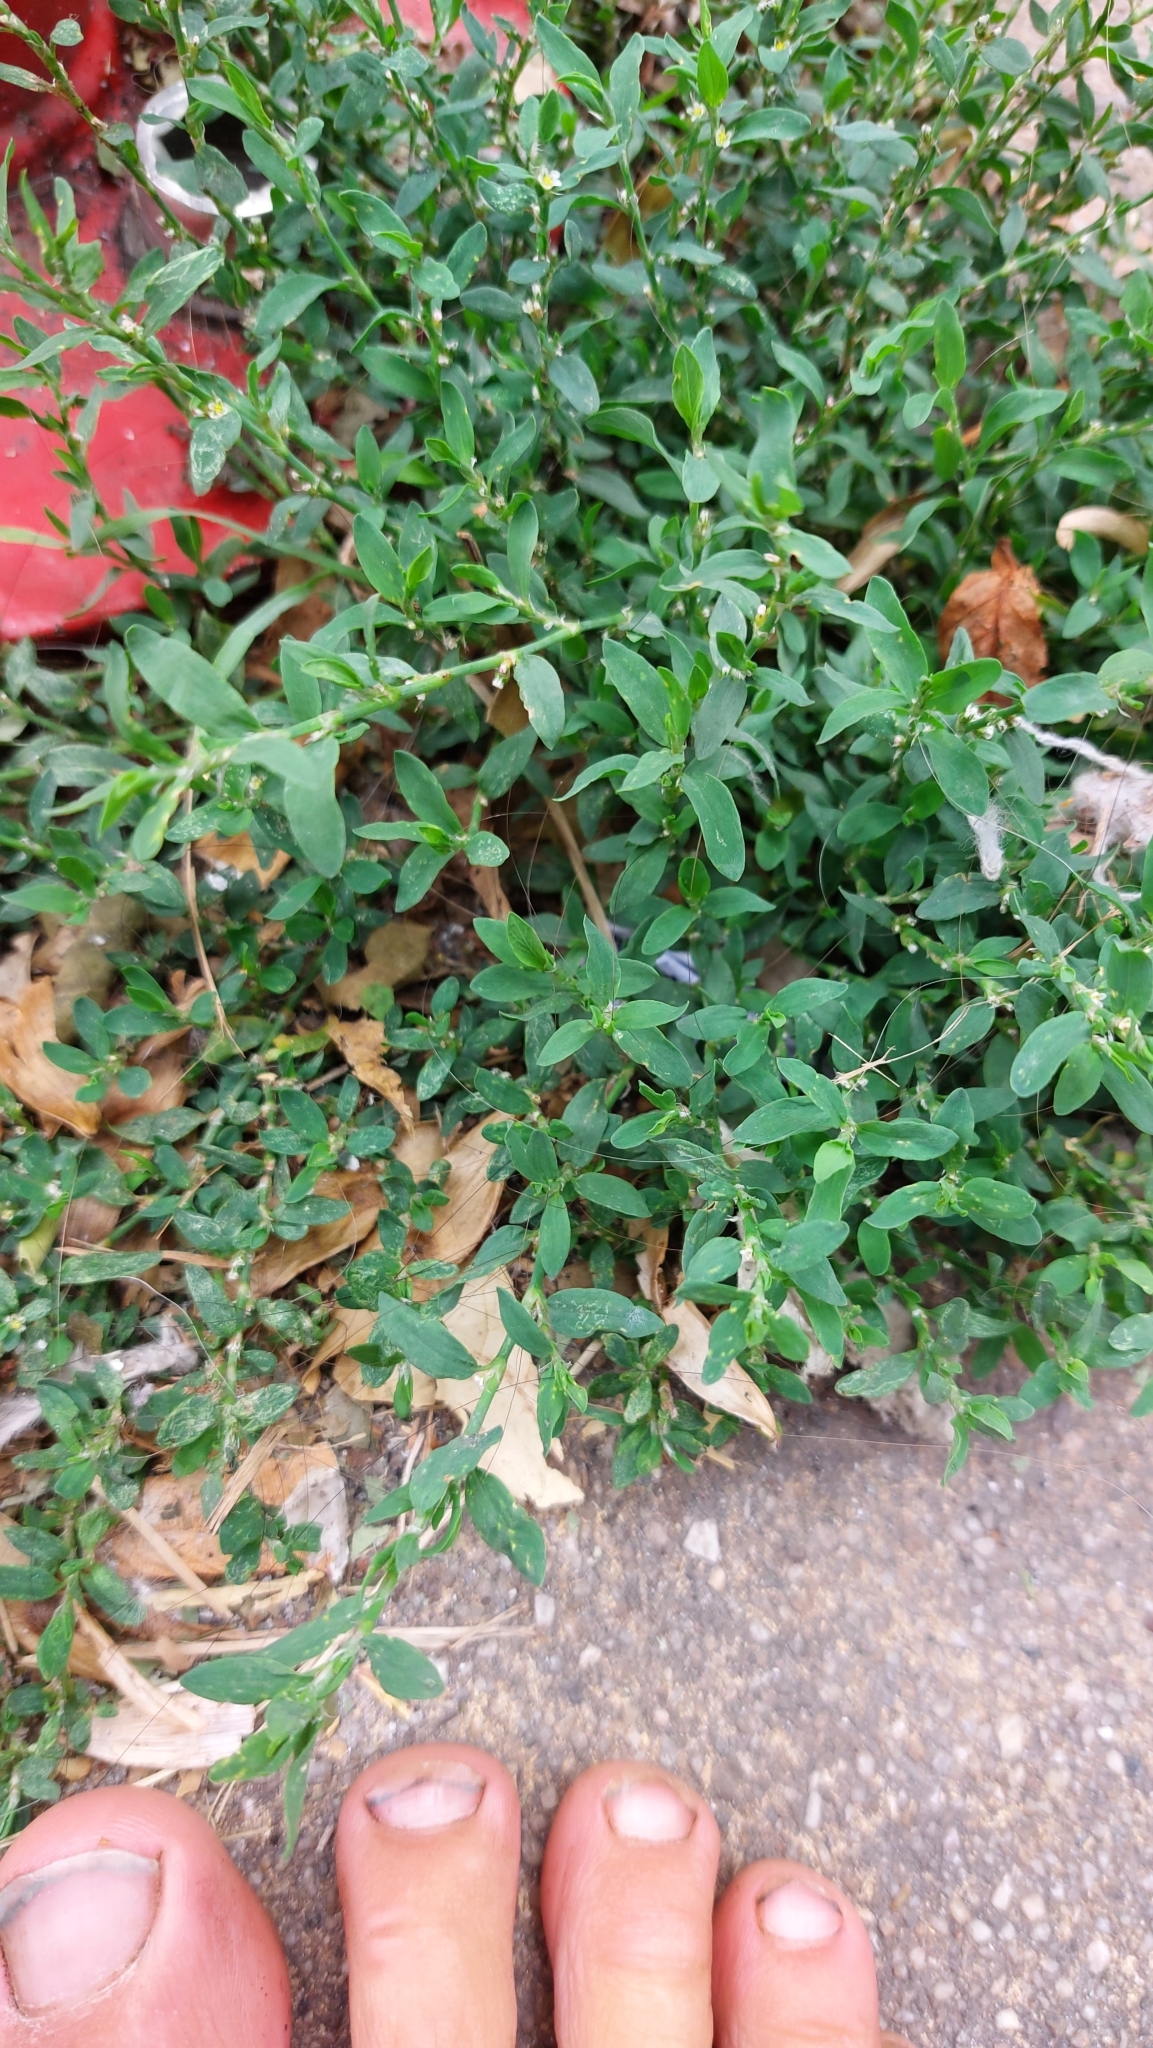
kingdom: Plantae
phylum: Tracheophyta
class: Magnoliopsida
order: Caryophyllales
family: Polygonaceae
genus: Polygonum
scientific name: Polygonum aviculare
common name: Prostrate knotweed
